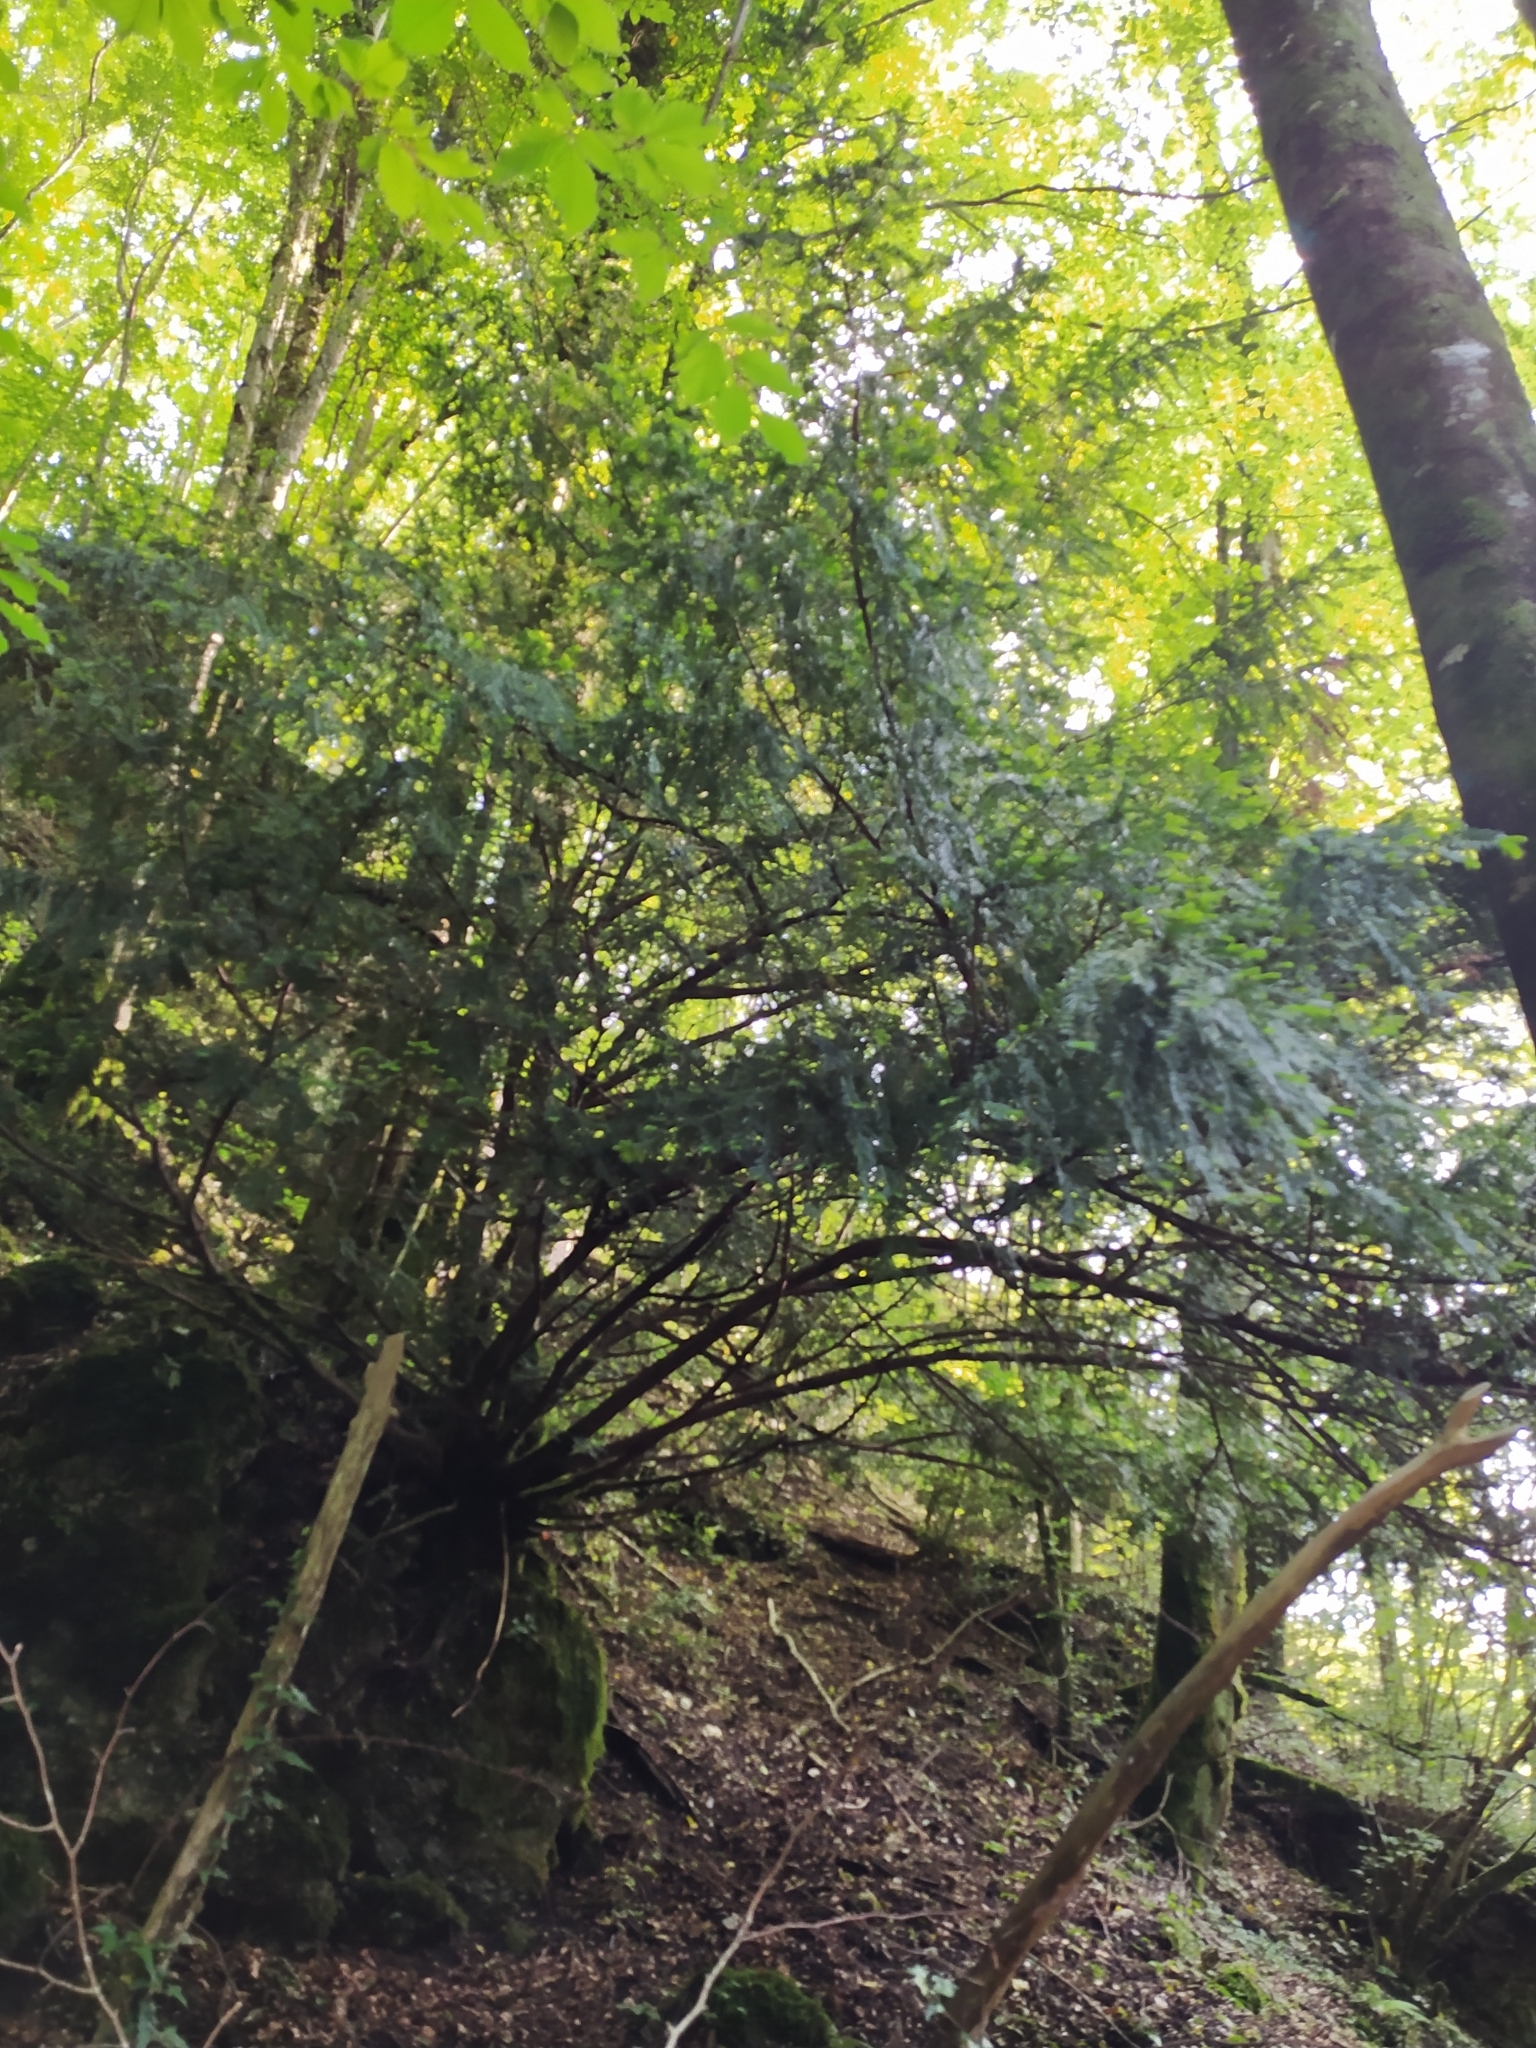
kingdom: Plantae
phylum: Tracheophyta
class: Pinopsida
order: Pinales
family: Taxaceae
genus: Taxus
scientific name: Taxus baccata
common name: Yew
